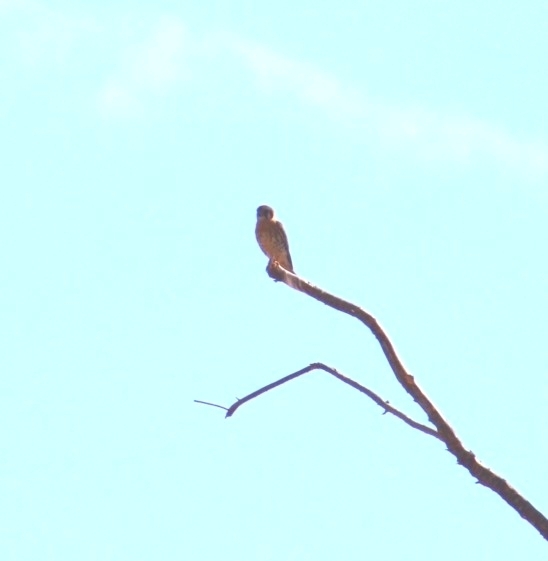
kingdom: Animalia
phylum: Chordata
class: Aves
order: Falconiformes
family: Falconidae
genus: Falco
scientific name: Falco sparverius
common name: American kestrel
